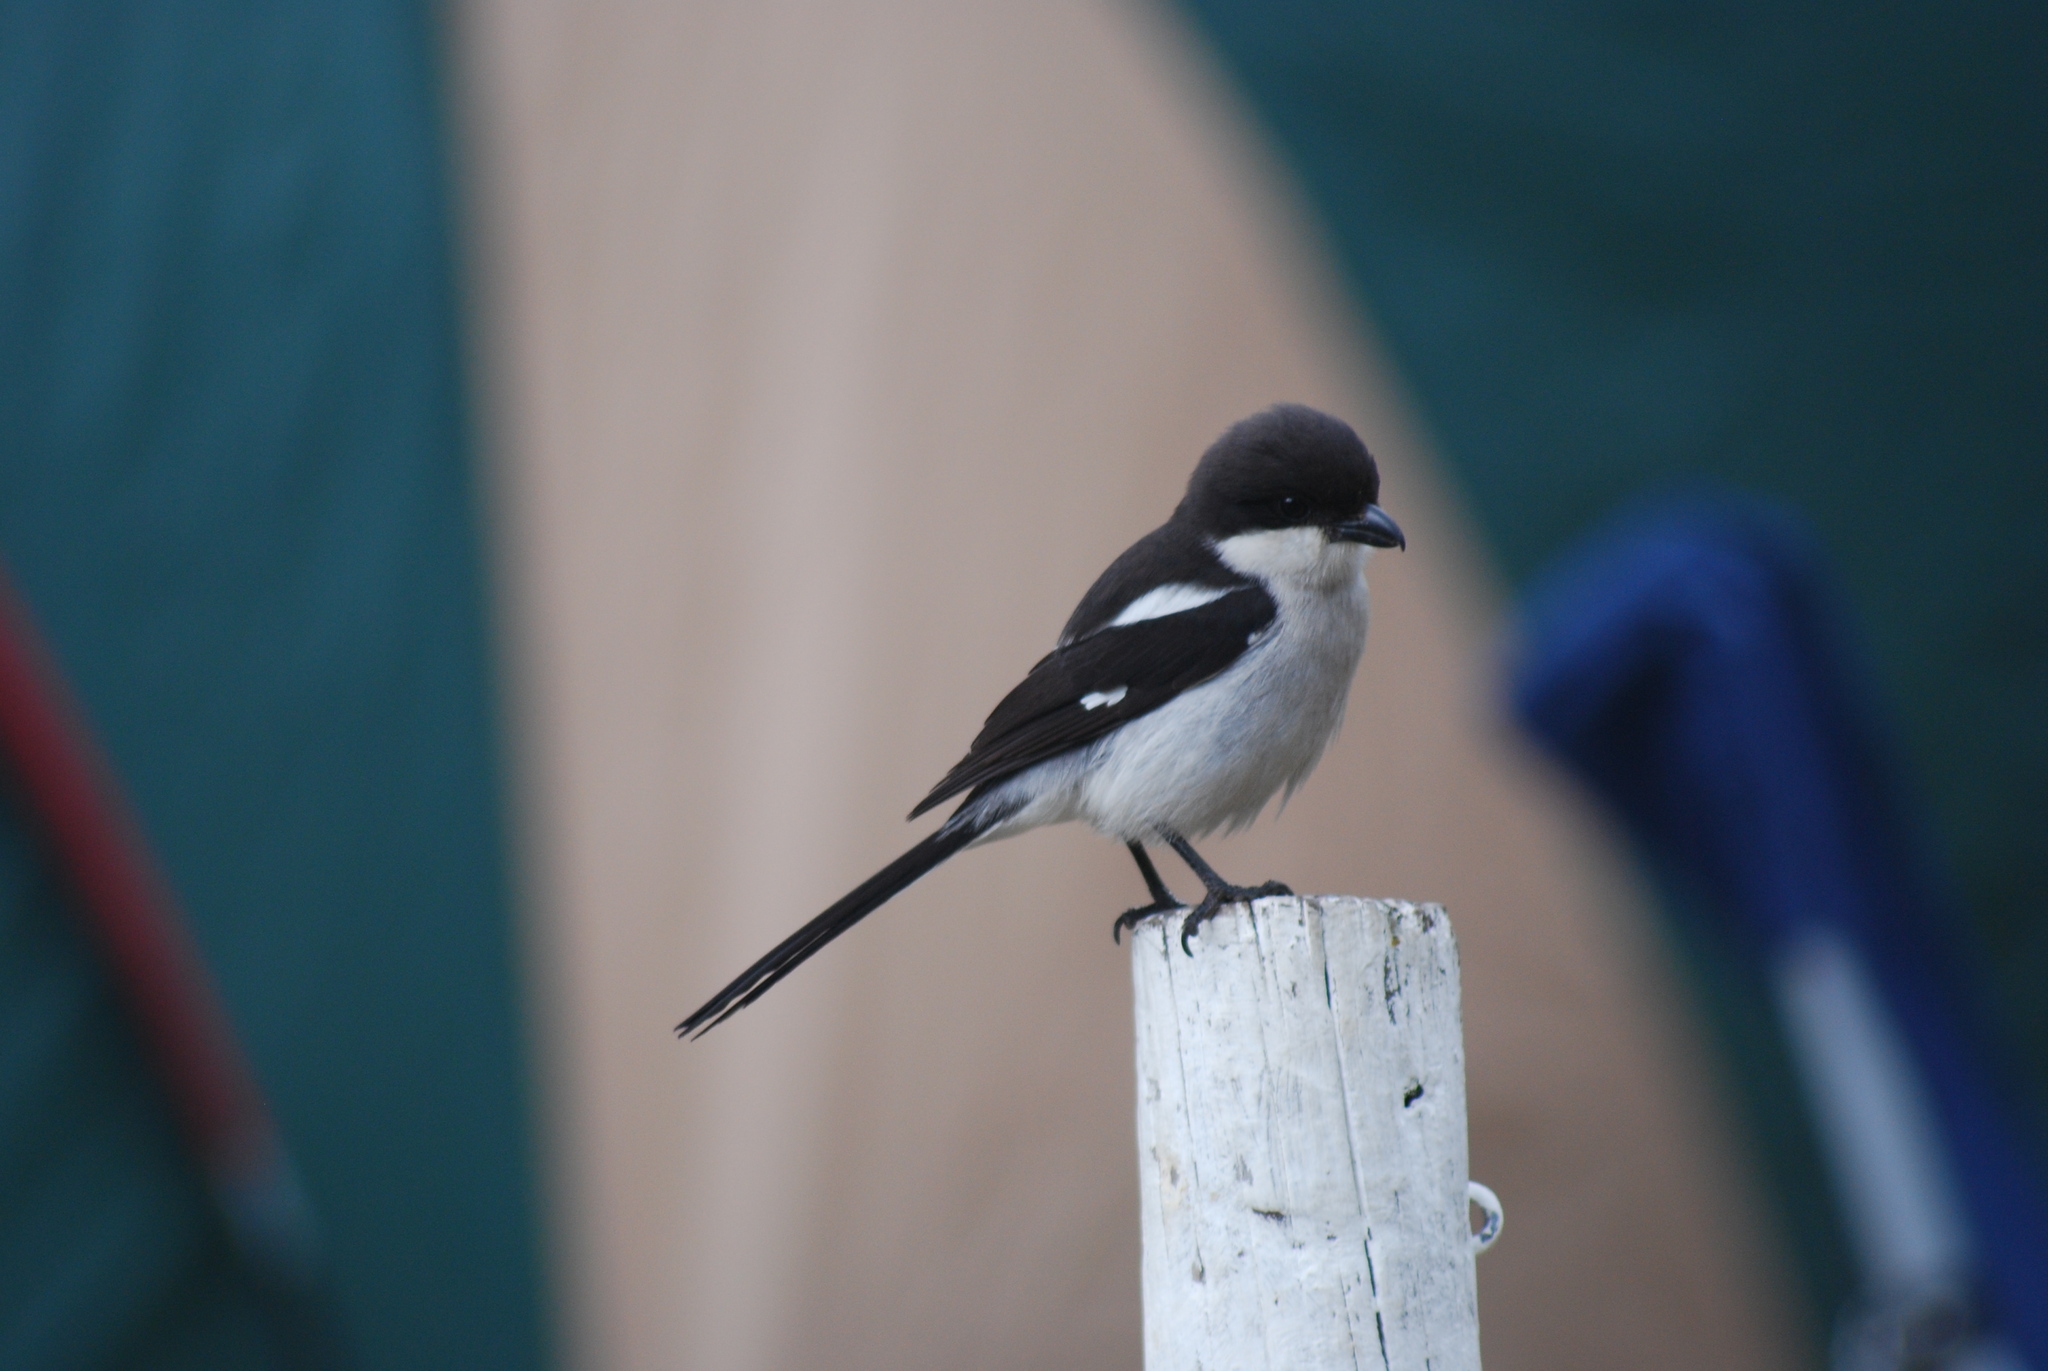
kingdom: Animalia
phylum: Chordata
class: Aves
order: Passeriformes
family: Laniidae
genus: Lanius
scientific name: Lanius collaris
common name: Southern fiscal
